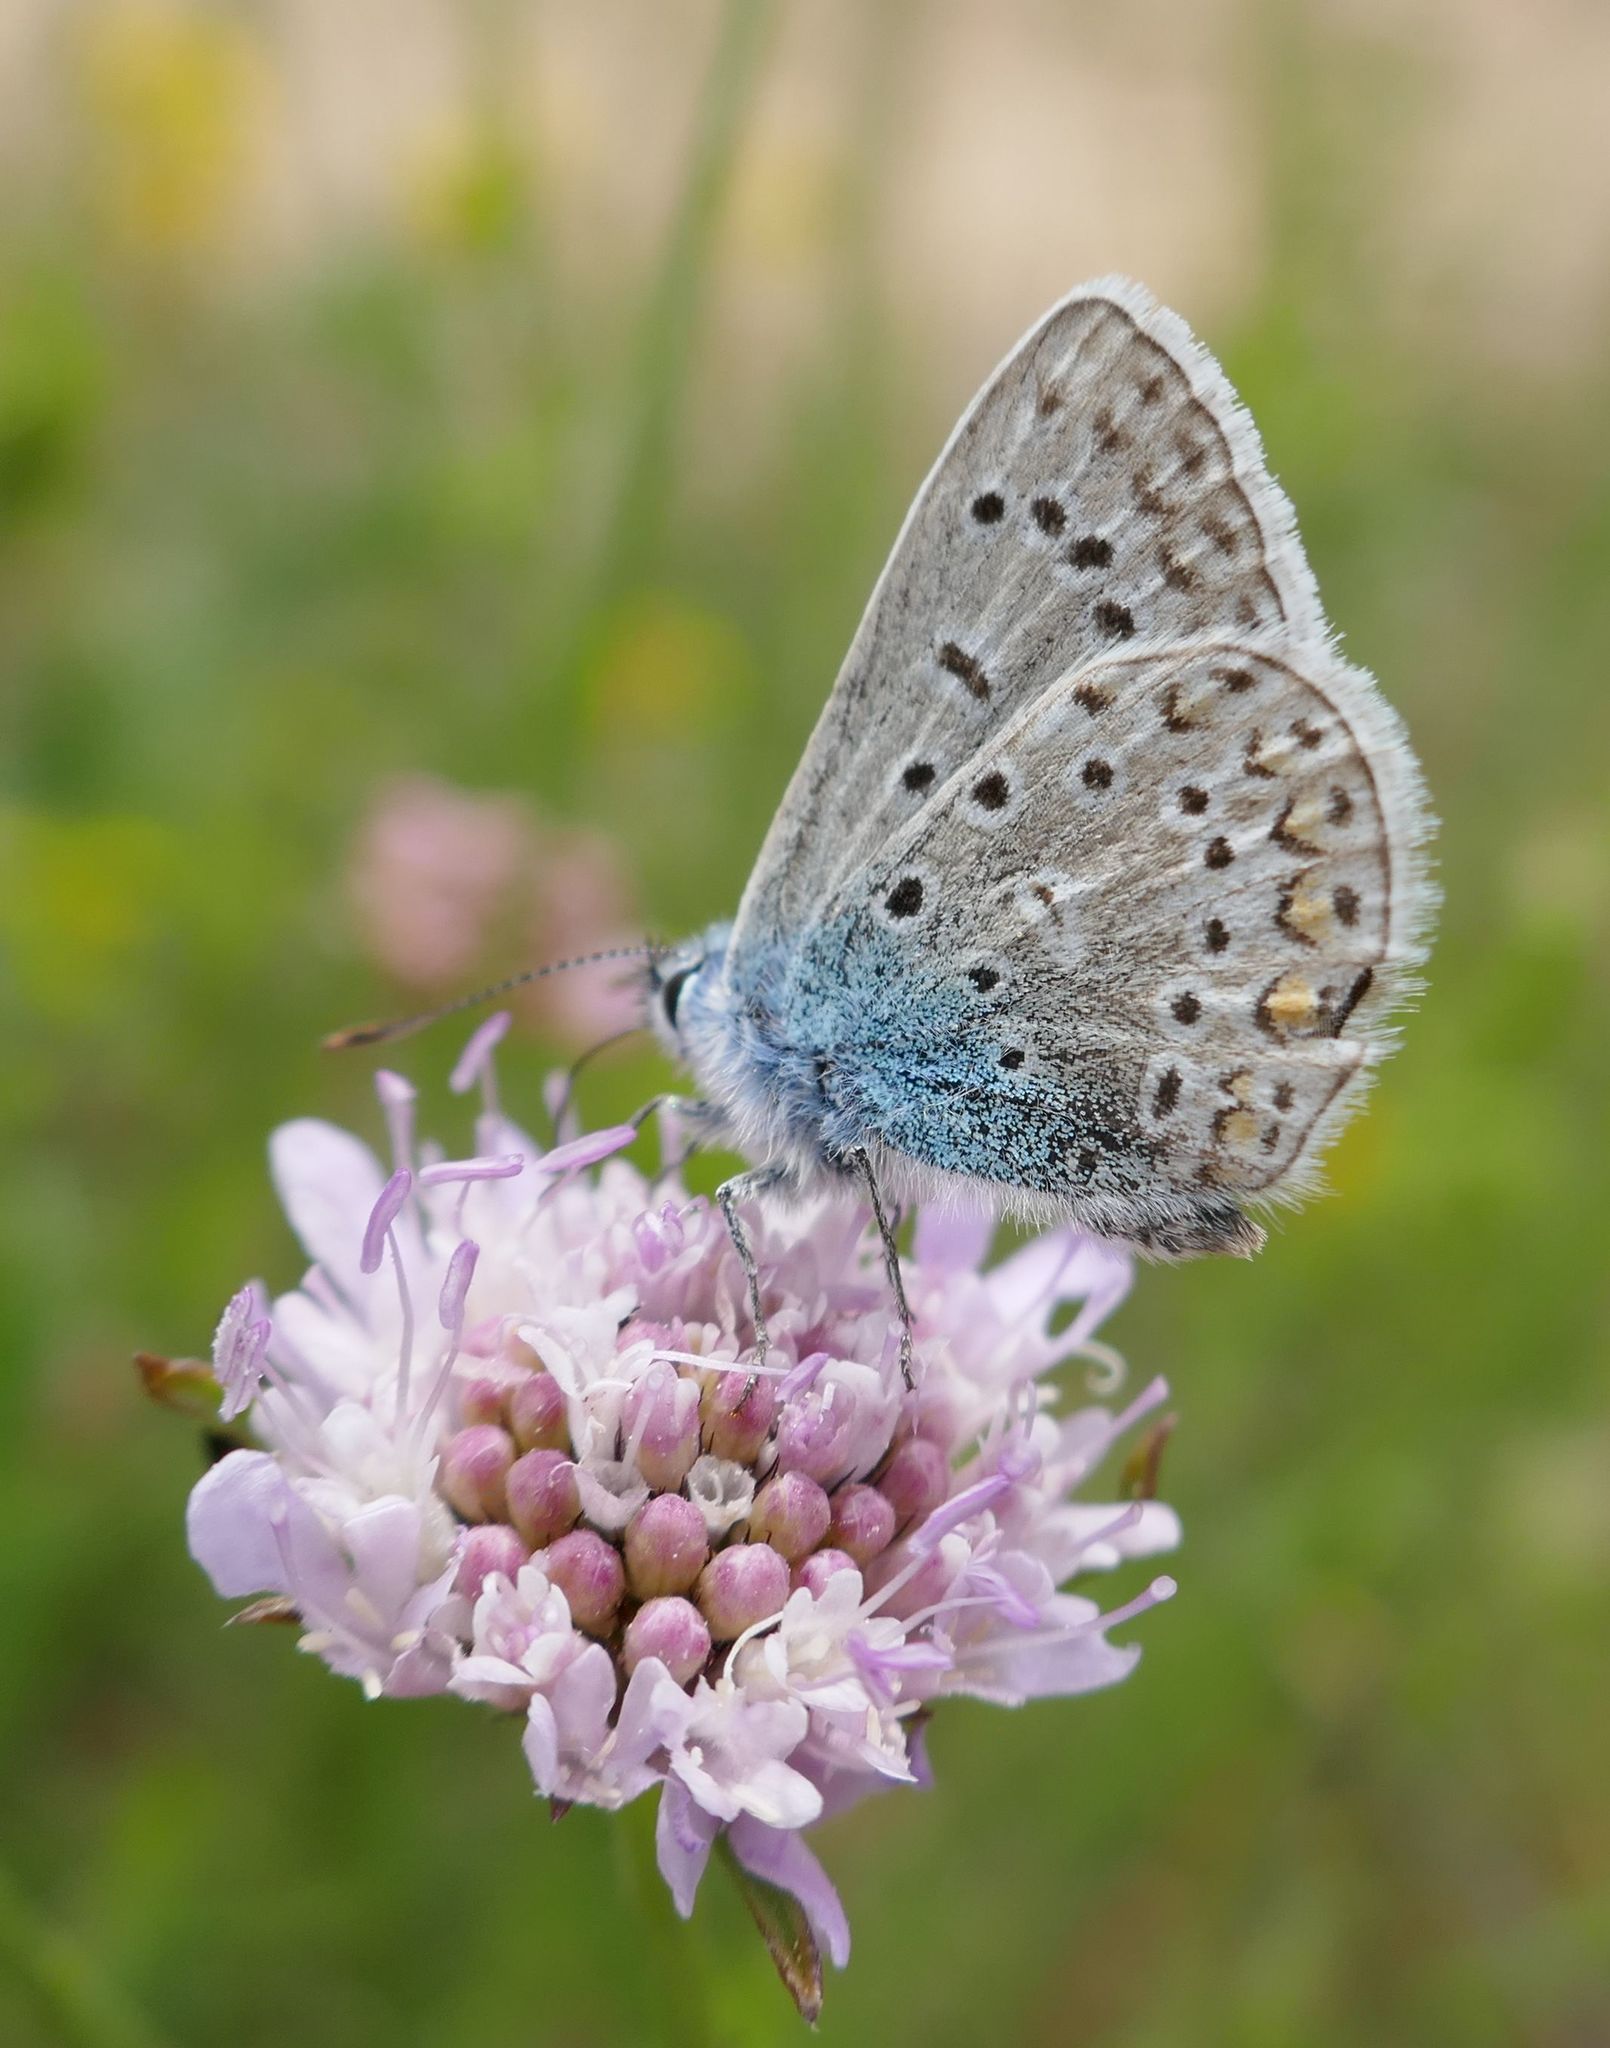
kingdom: Animalia
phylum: Arthropoda
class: Insecta
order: Lepidoptera
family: Lycaenidae
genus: Polyommatus
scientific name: Polyommatus icarus
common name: Common blue
